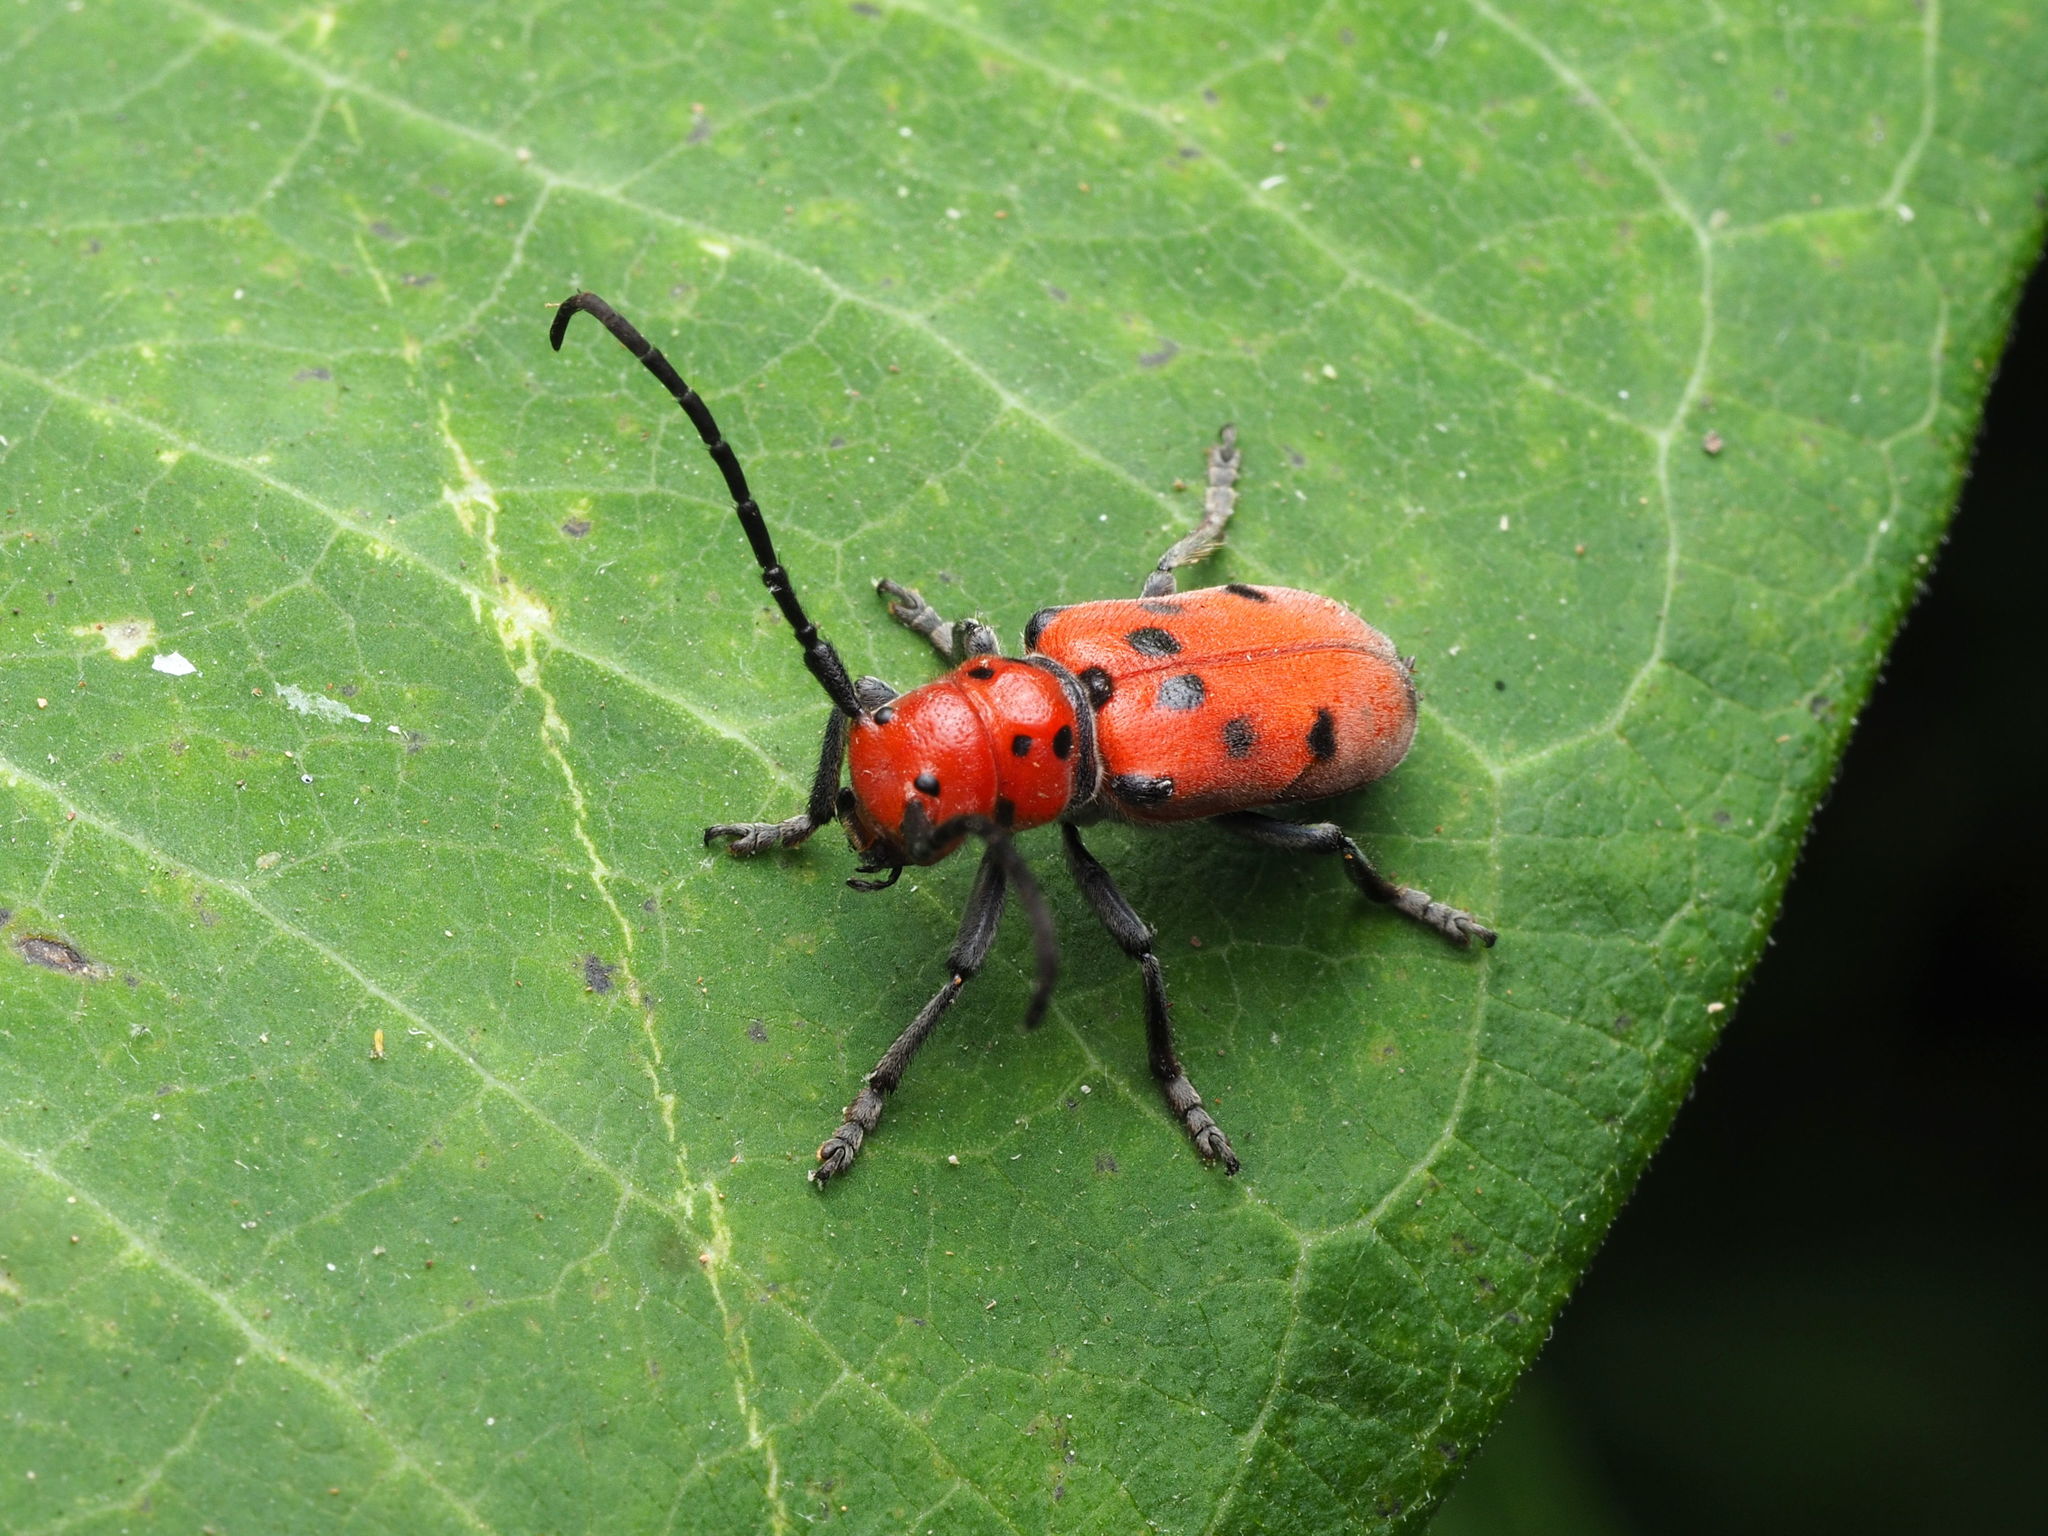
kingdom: Animalia
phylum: Arthropoda
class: Insecta
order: Coleoptera
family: Cerambycidae
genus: Tetraopes
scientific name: Tetraopes tetrophthalmus
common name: Red milkweed beetle
